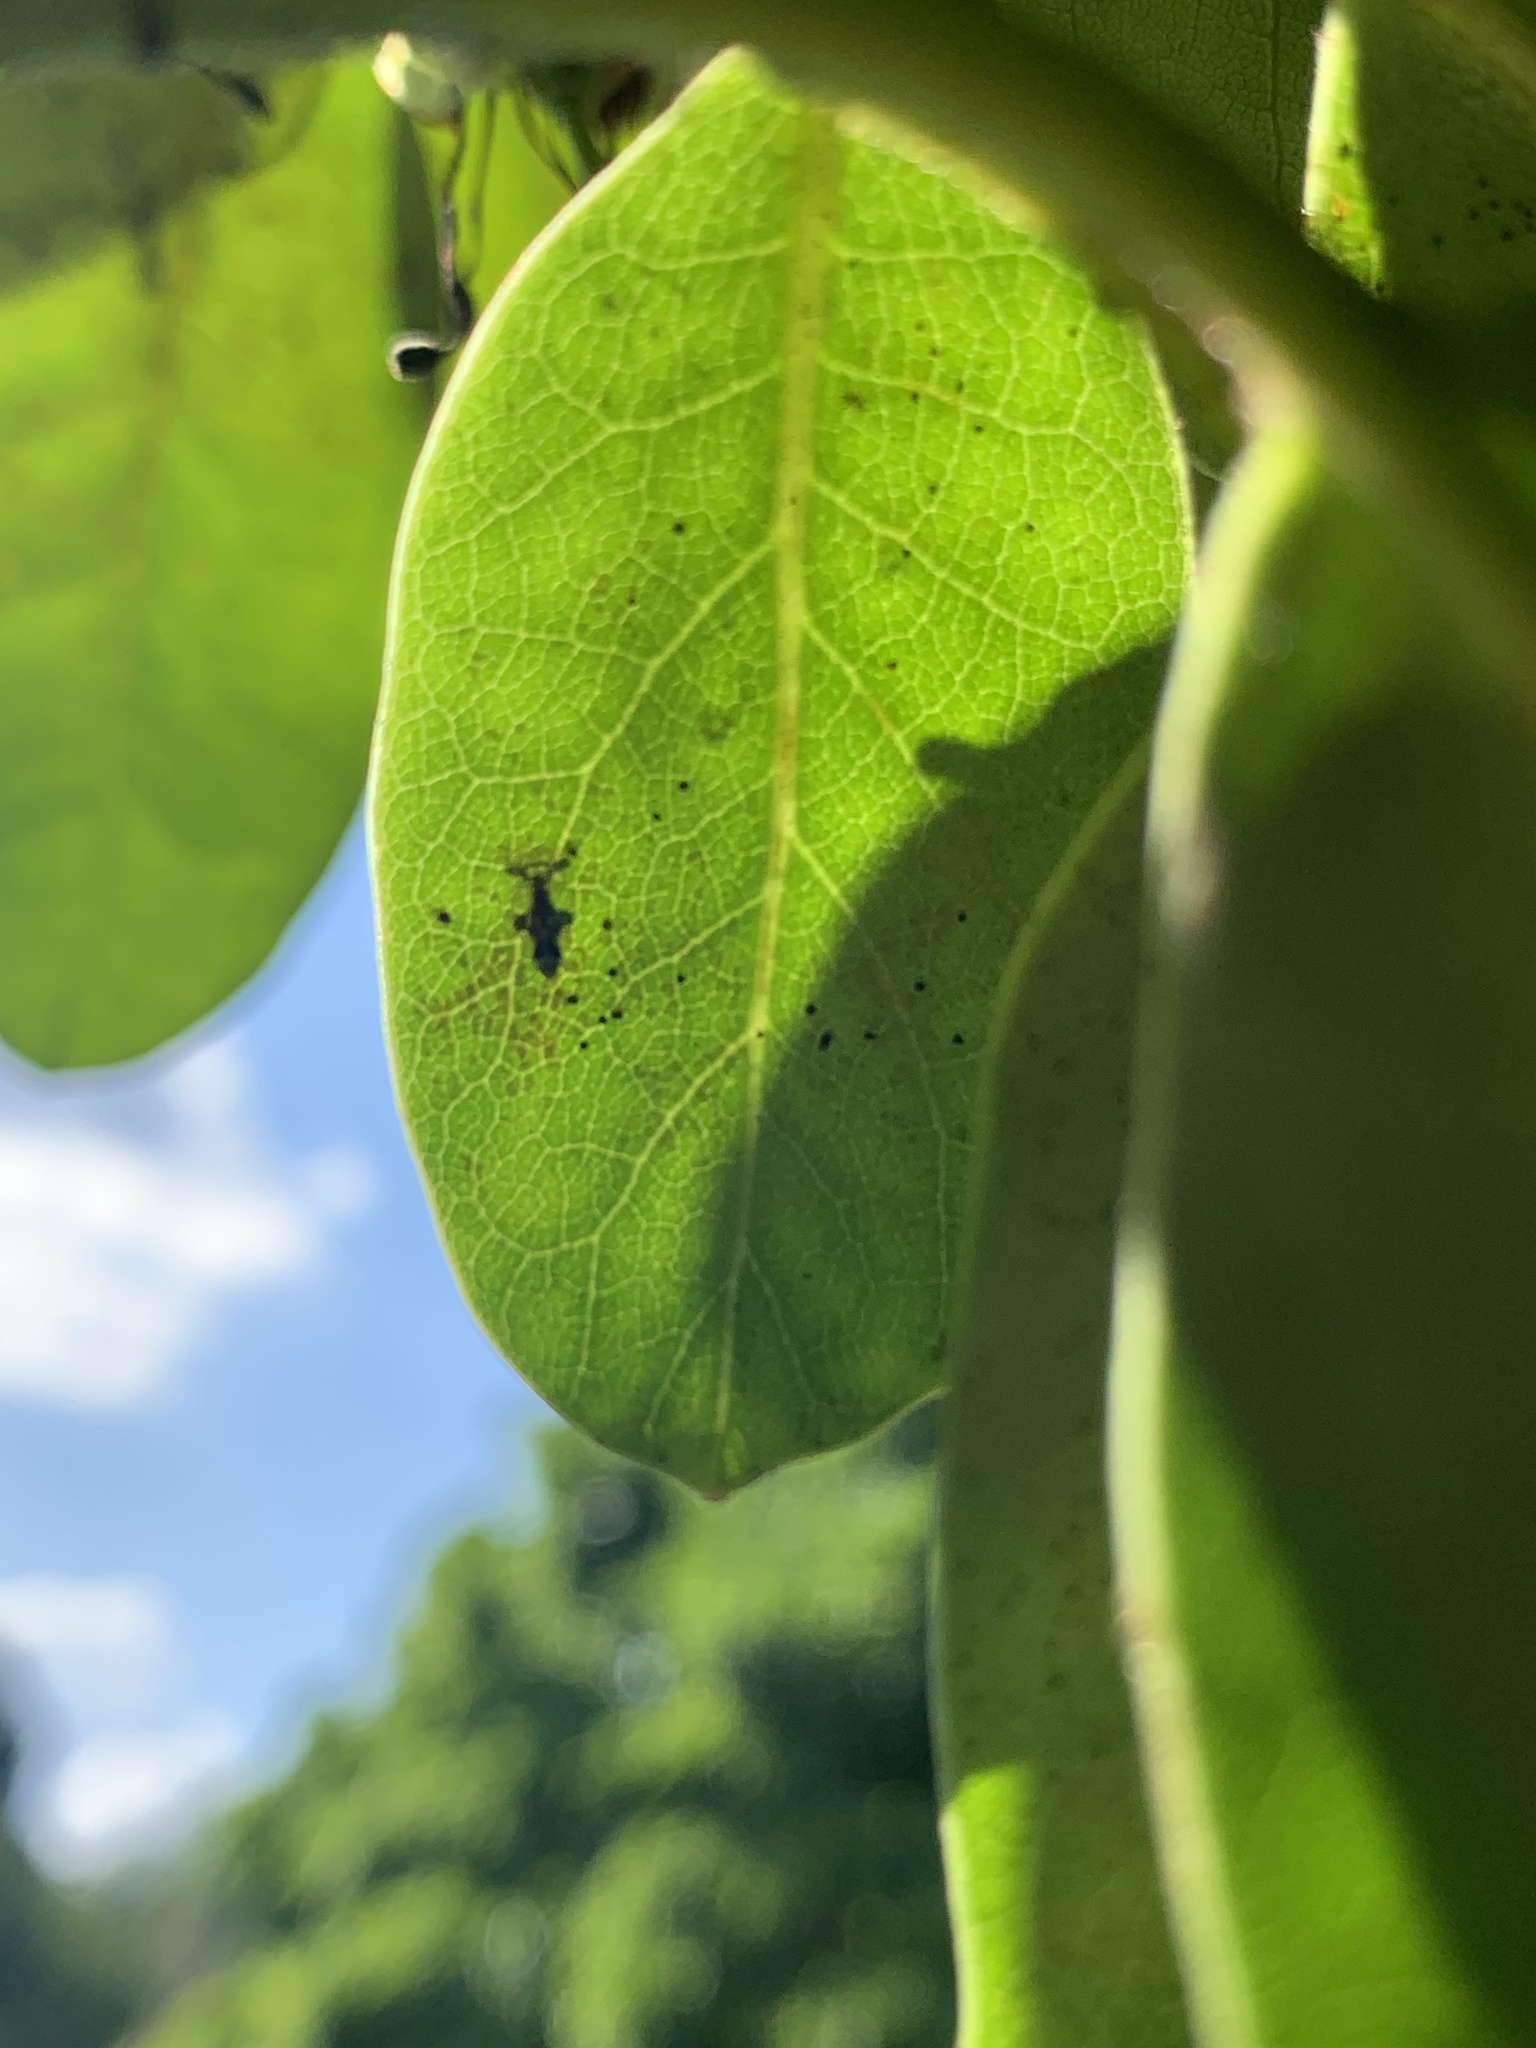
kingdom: Animalia
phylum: Arthropoda
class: Insecta
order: Hemiptera
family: Tingidae
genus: Stephanitis
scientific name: Stephanitis takeyai
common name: Andromeda lacebug
